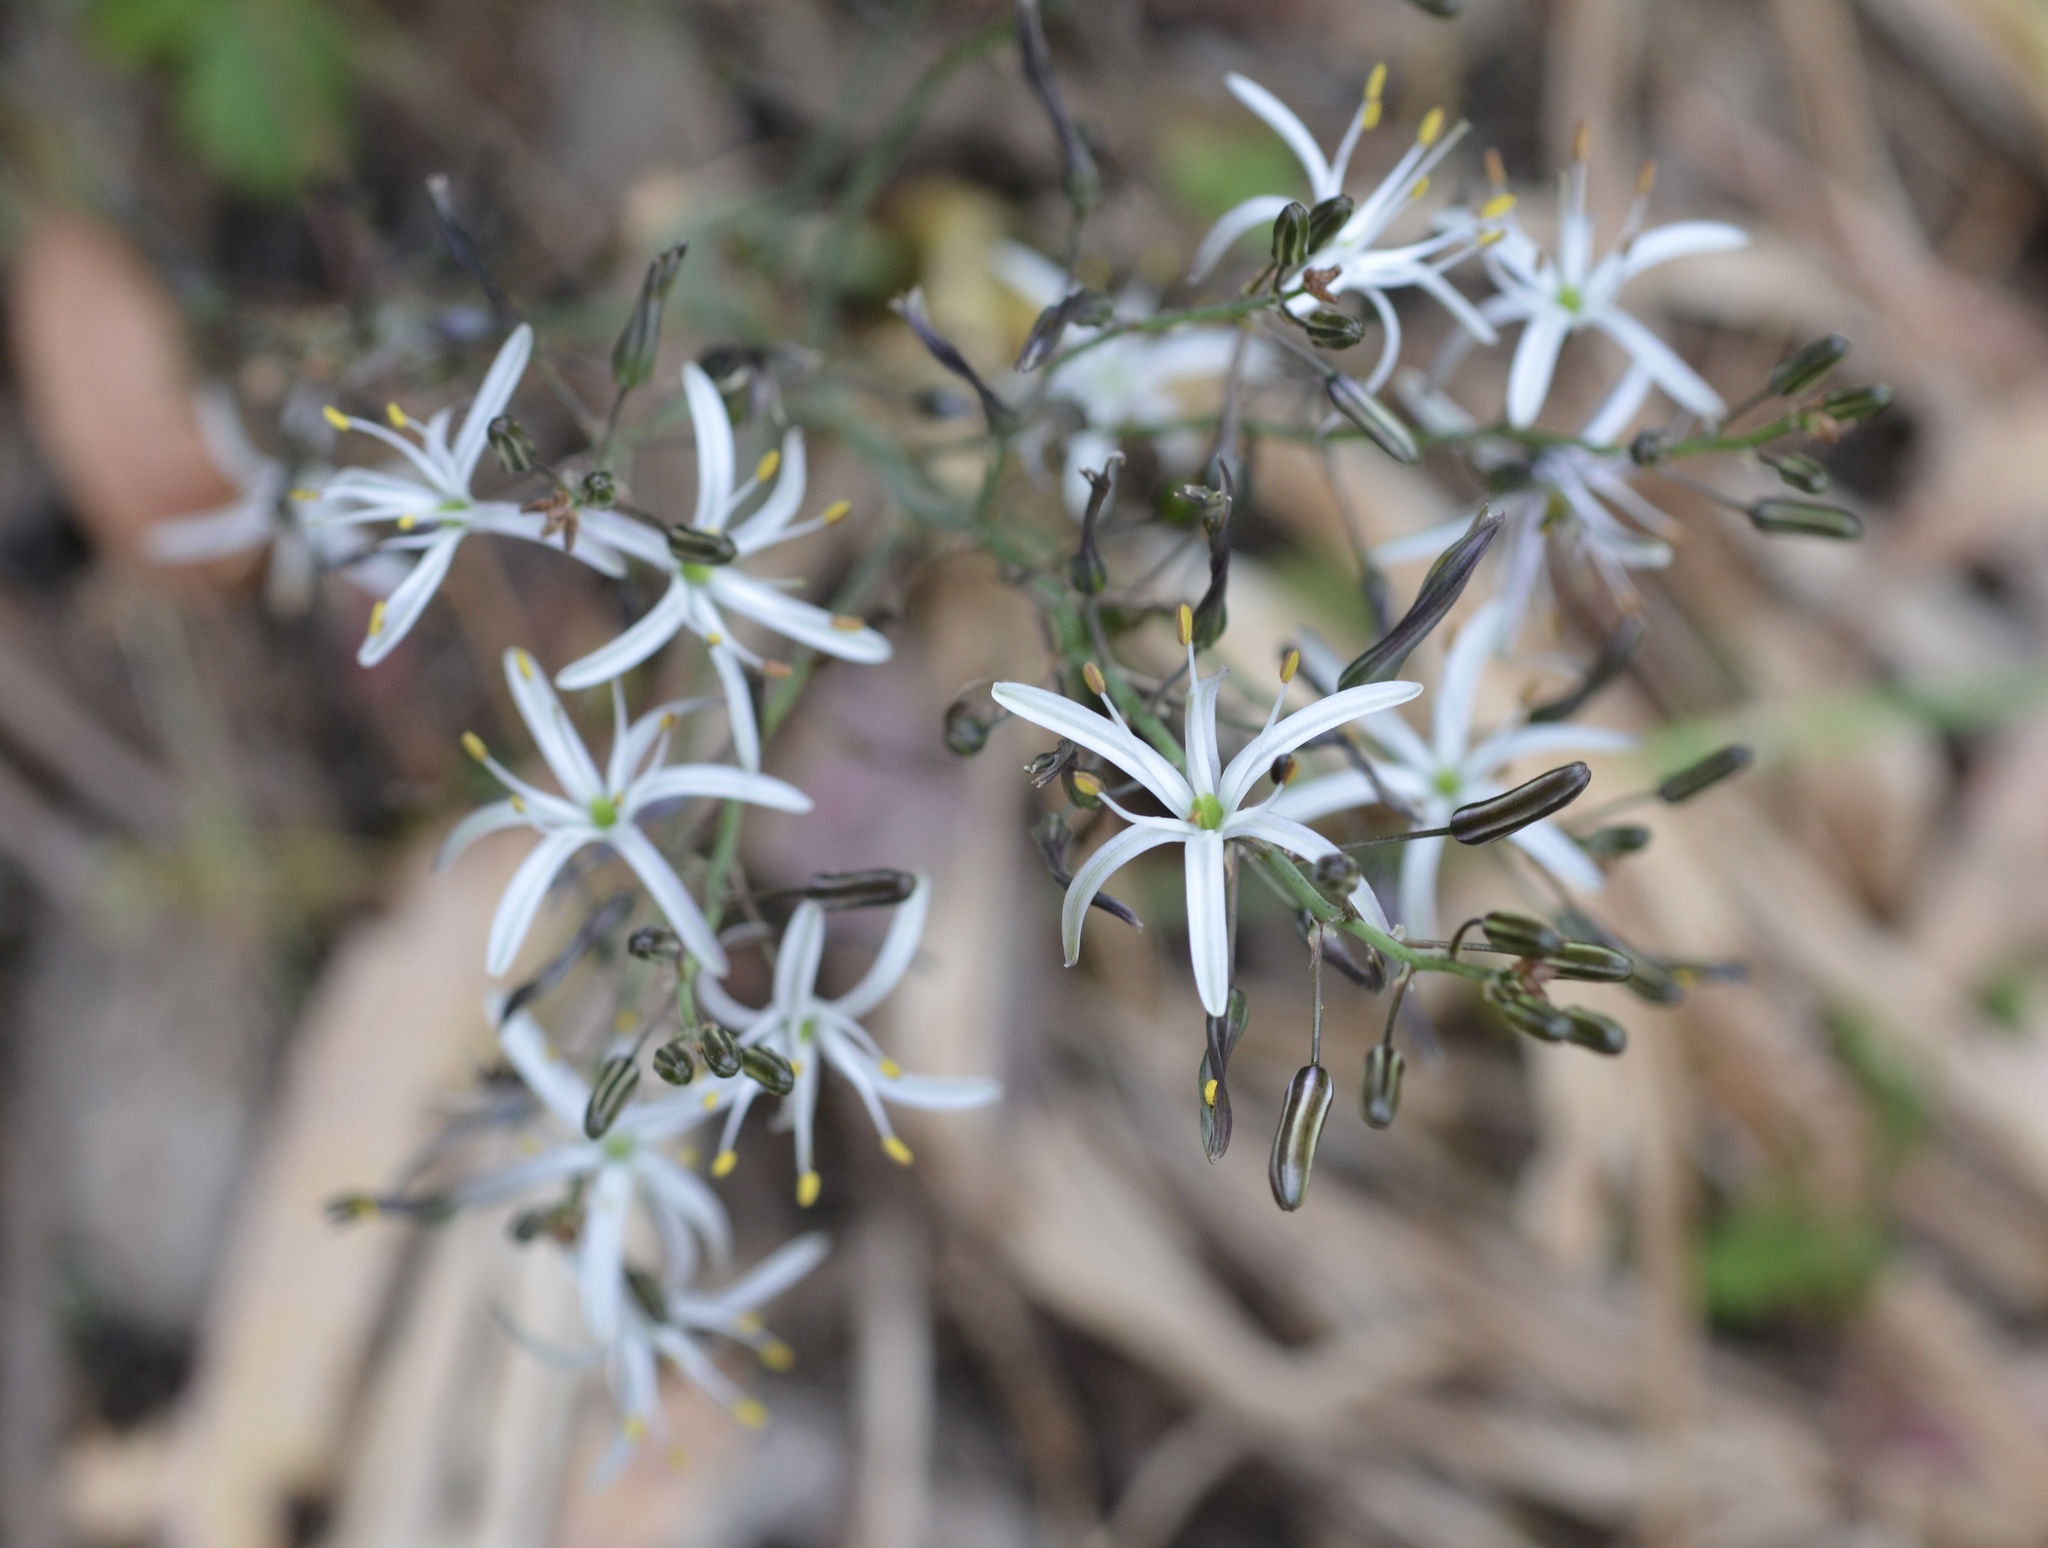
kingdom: Plantae
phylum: Tracheophyta
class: Liliopsida
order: Asparagales
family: Asparagaceae
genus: Chlorogalum
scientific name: Chlorogalum pomeridianum
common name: Amole
